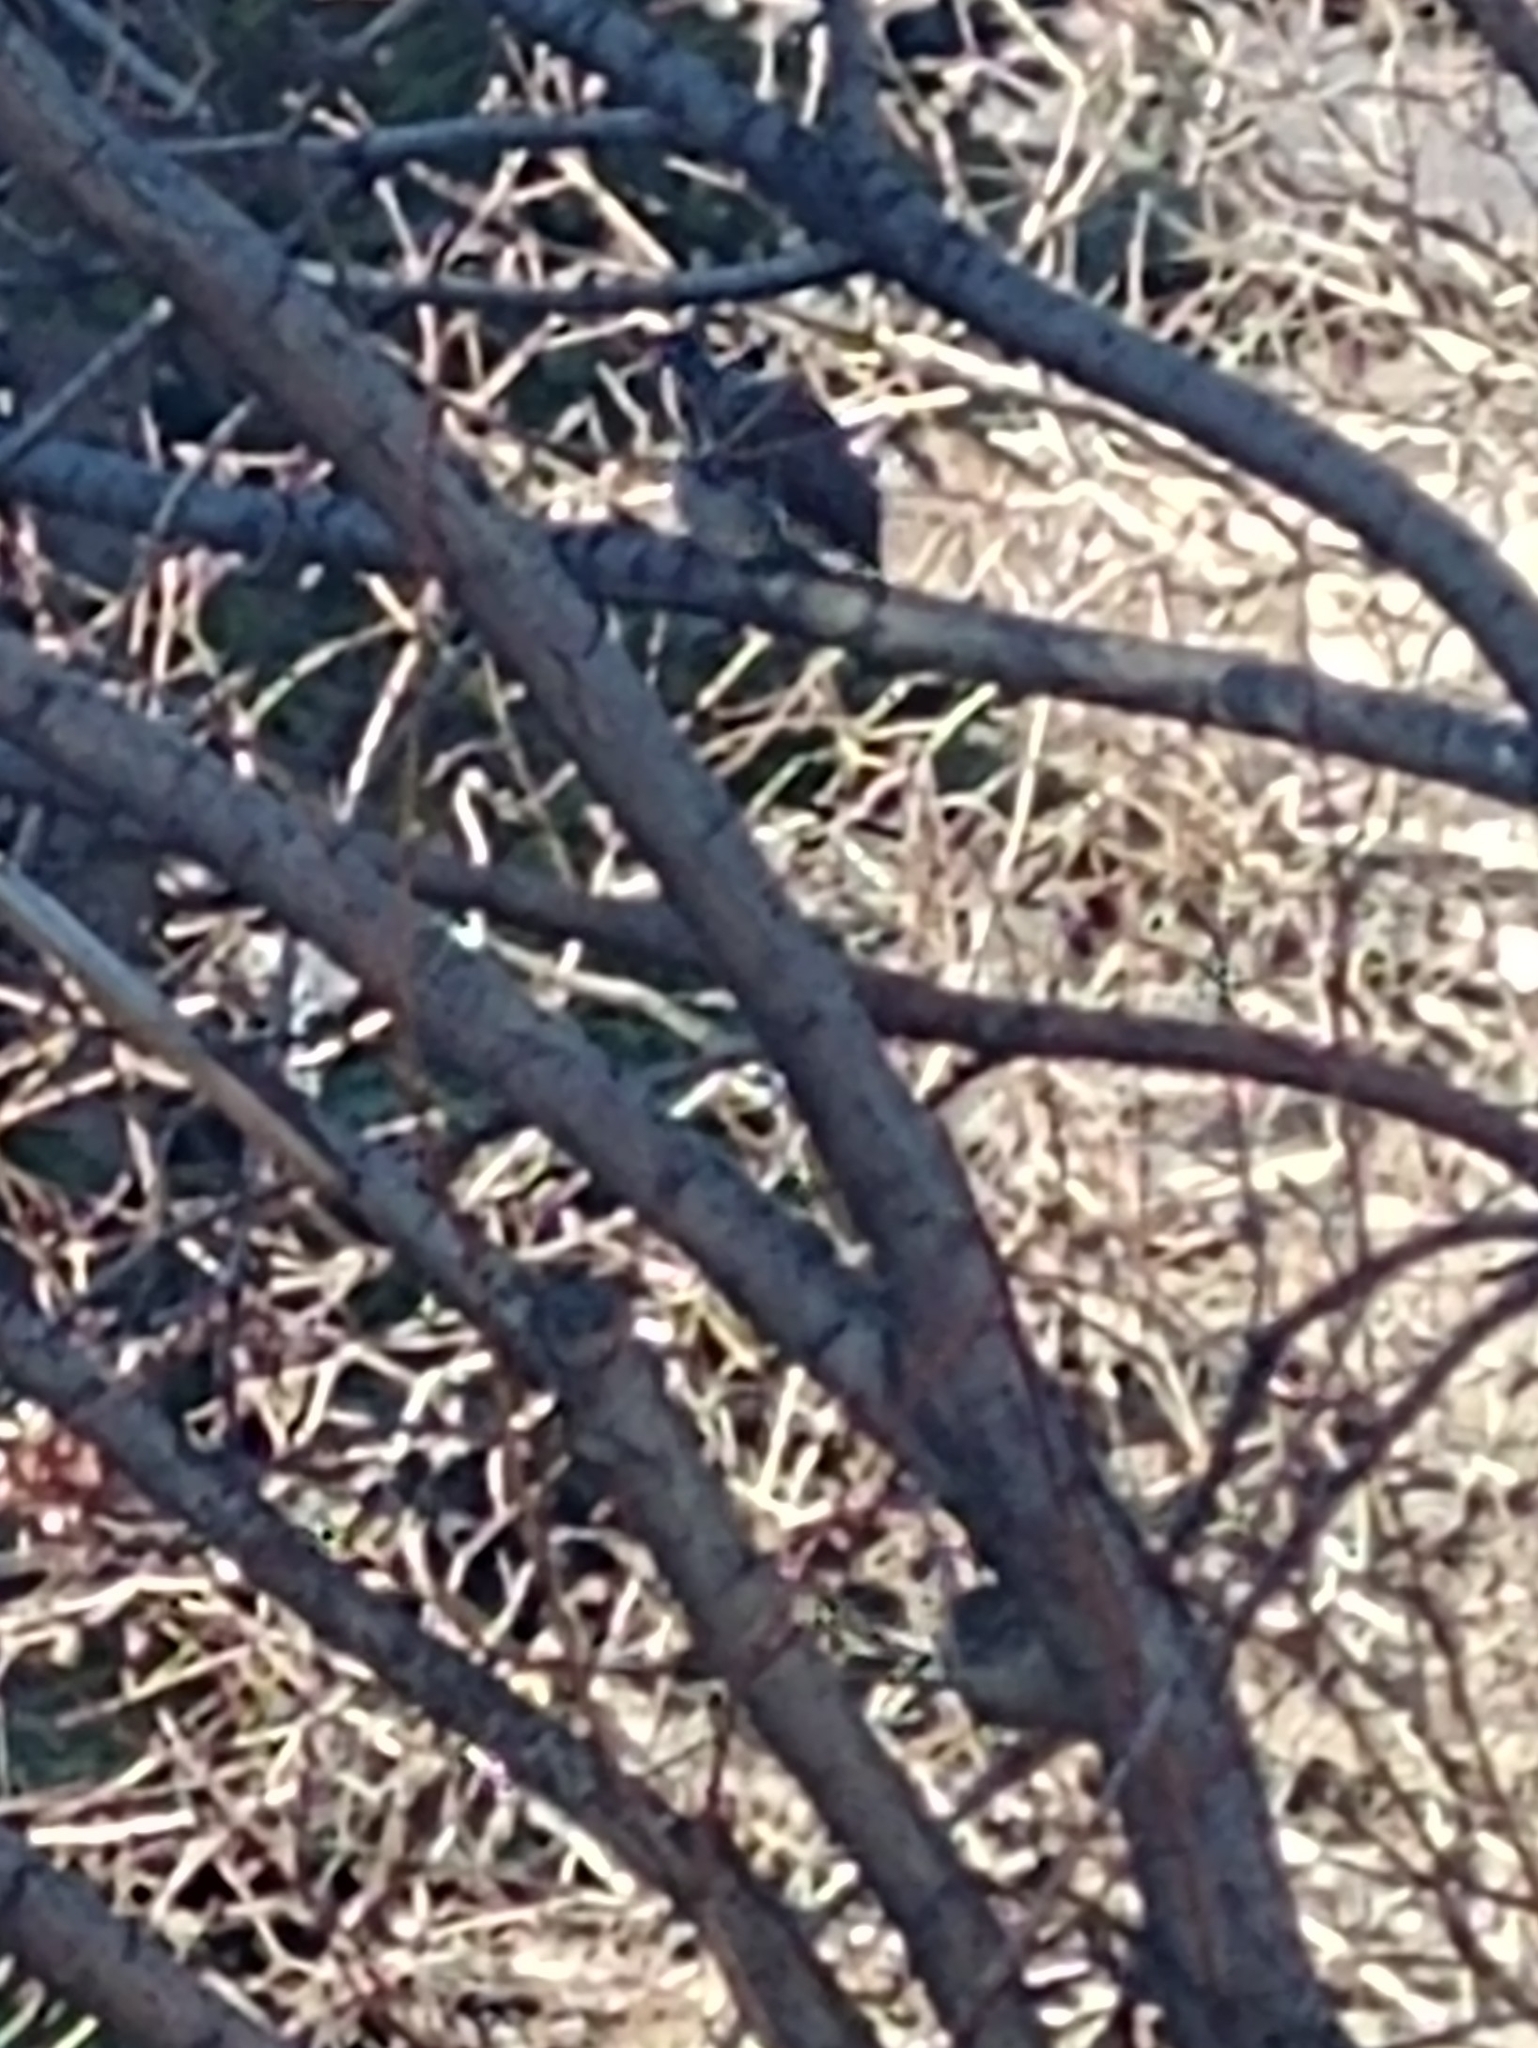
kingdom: Animalia
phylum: Chordata
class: Aves
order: Passeriformes
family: Passeridae
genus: Passer
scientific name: Passer domesticus
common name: House sparrow
